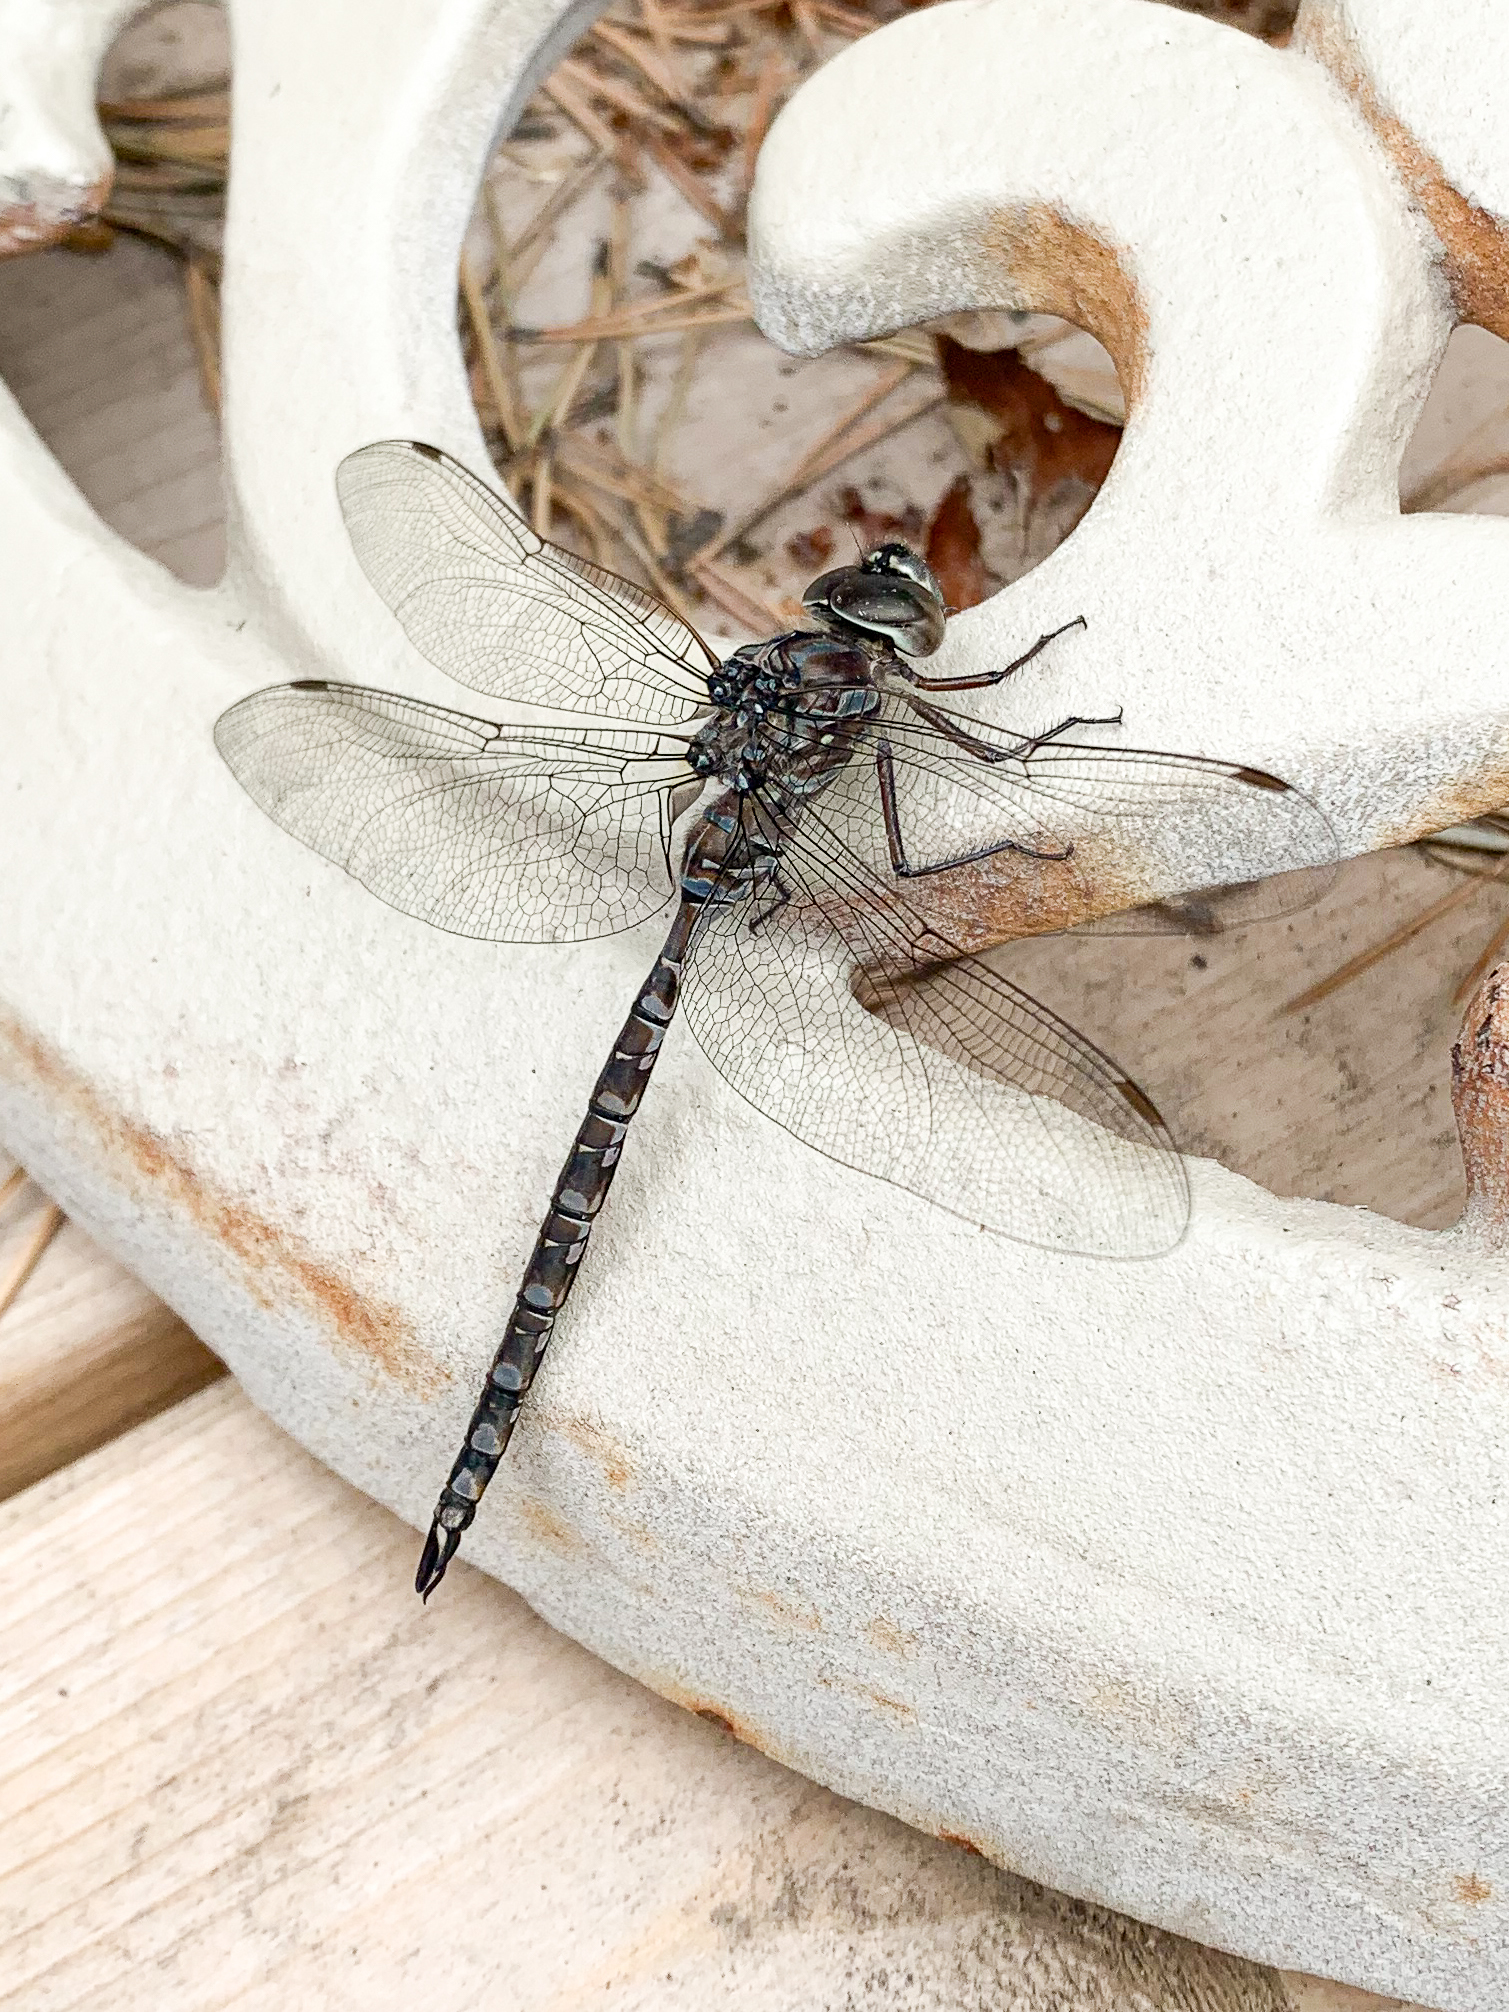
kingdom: Animalia
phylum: Arthropoda
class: Insecta
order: Odonata
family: Aeshnidae
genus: Aeshna
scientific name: Aeshna canadensis
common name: Canada darner
